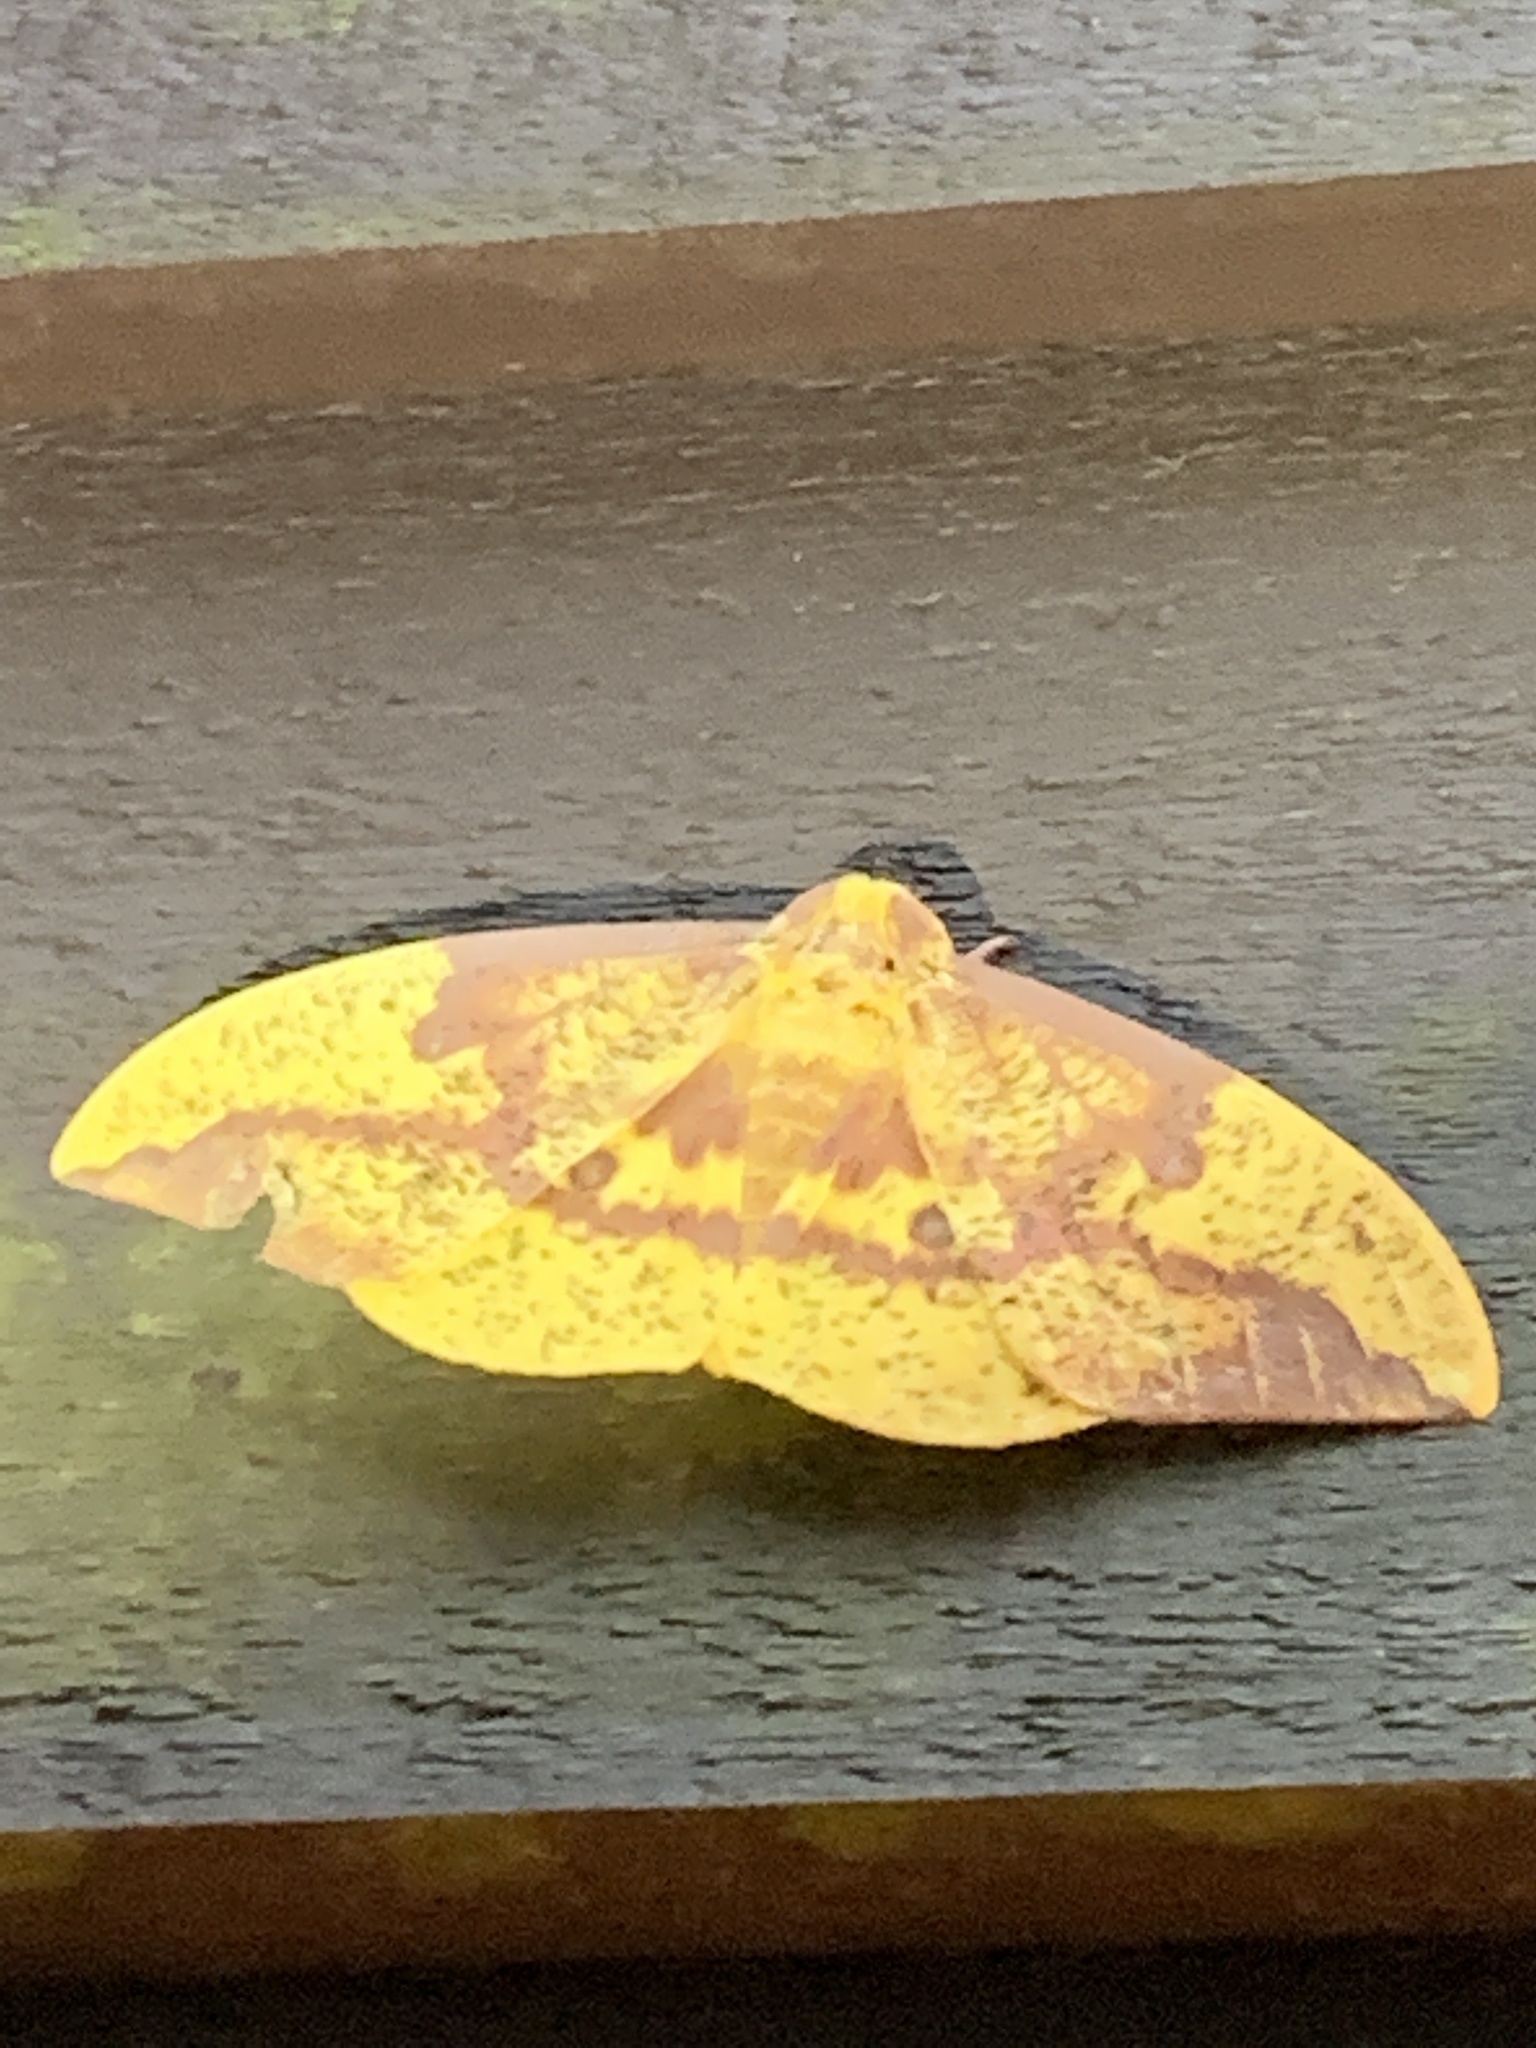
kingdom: Animalia
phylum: Arthropoda
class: Insecta
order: Lepidoptera
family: Saturniidae
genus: Eacles
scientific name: Eacles imperialis
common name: Imperial moth
